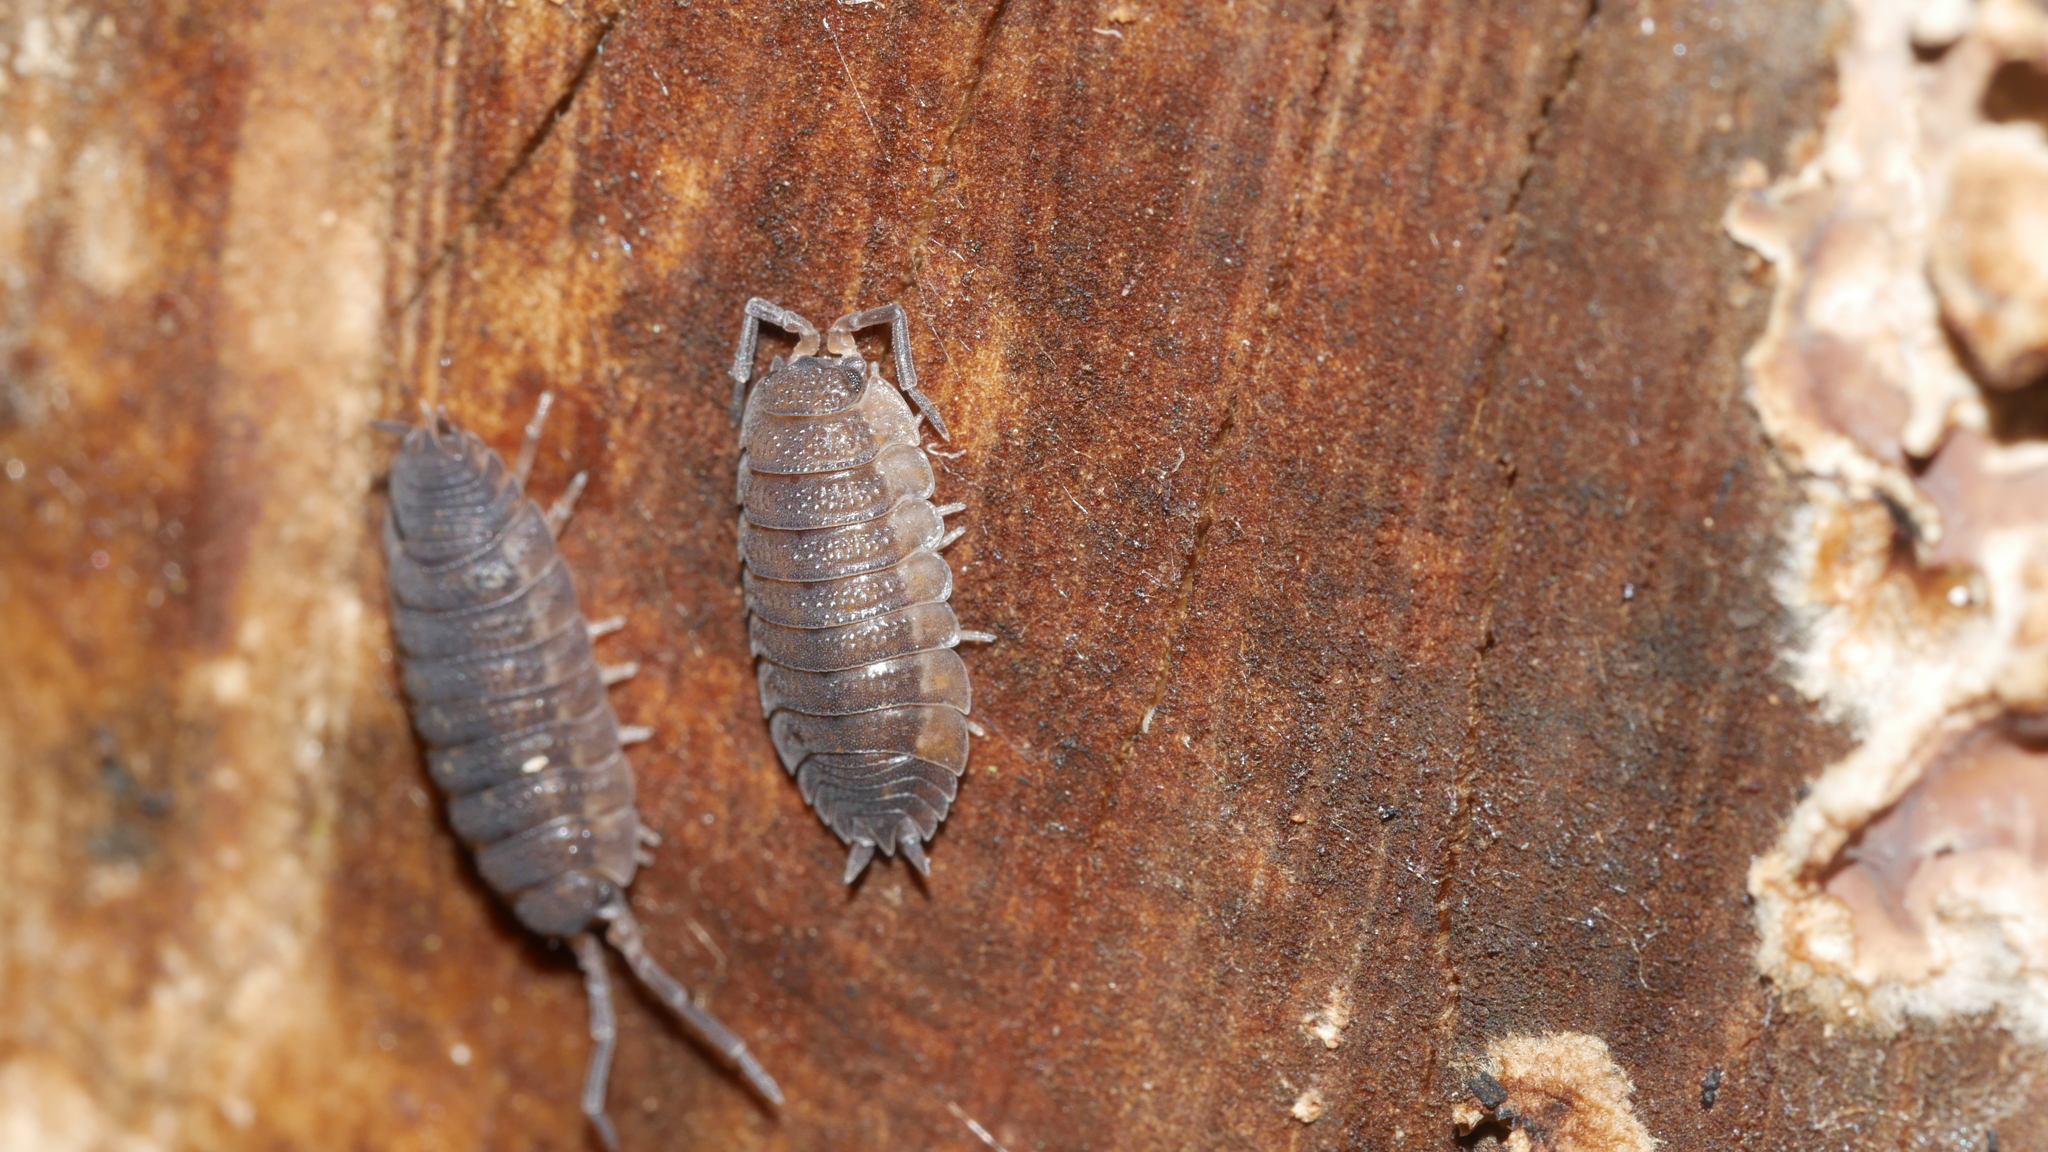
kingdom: Animalia
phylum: Arthropoda
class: Malacostraca
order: Isopoda
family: Porcellionidae
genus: Porcellio
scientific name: Porcellio scaber
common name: Common rough woodlouse
